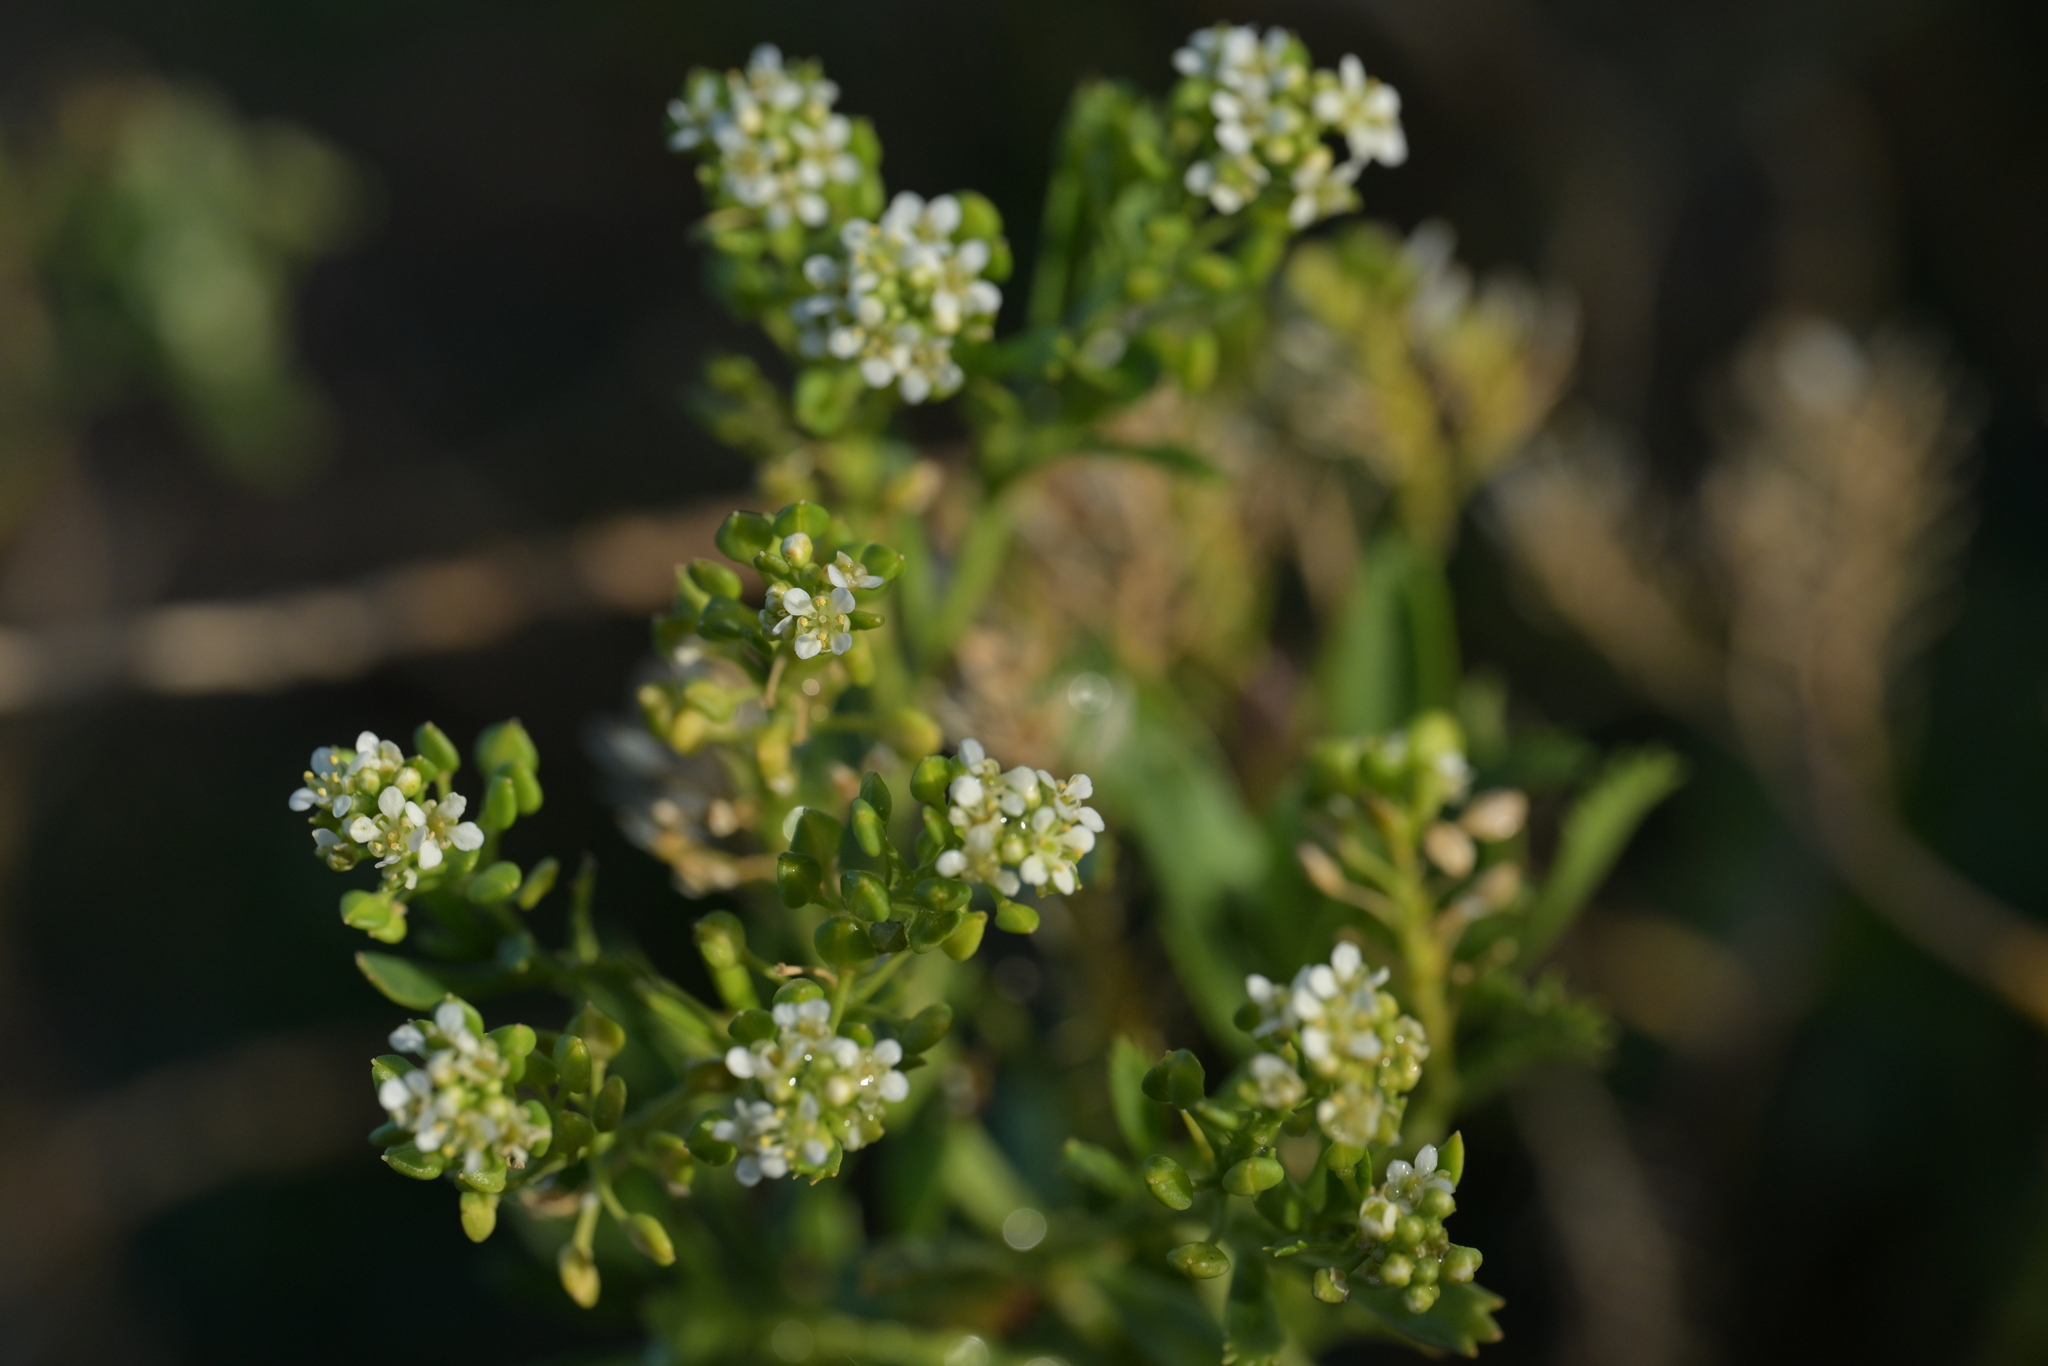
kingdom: Plantae
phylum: Tracheophyta
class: Magnoliopsida
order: Brassicales
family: Brassicaceae
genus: Lepidium
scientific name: Lepidium oleraceum
